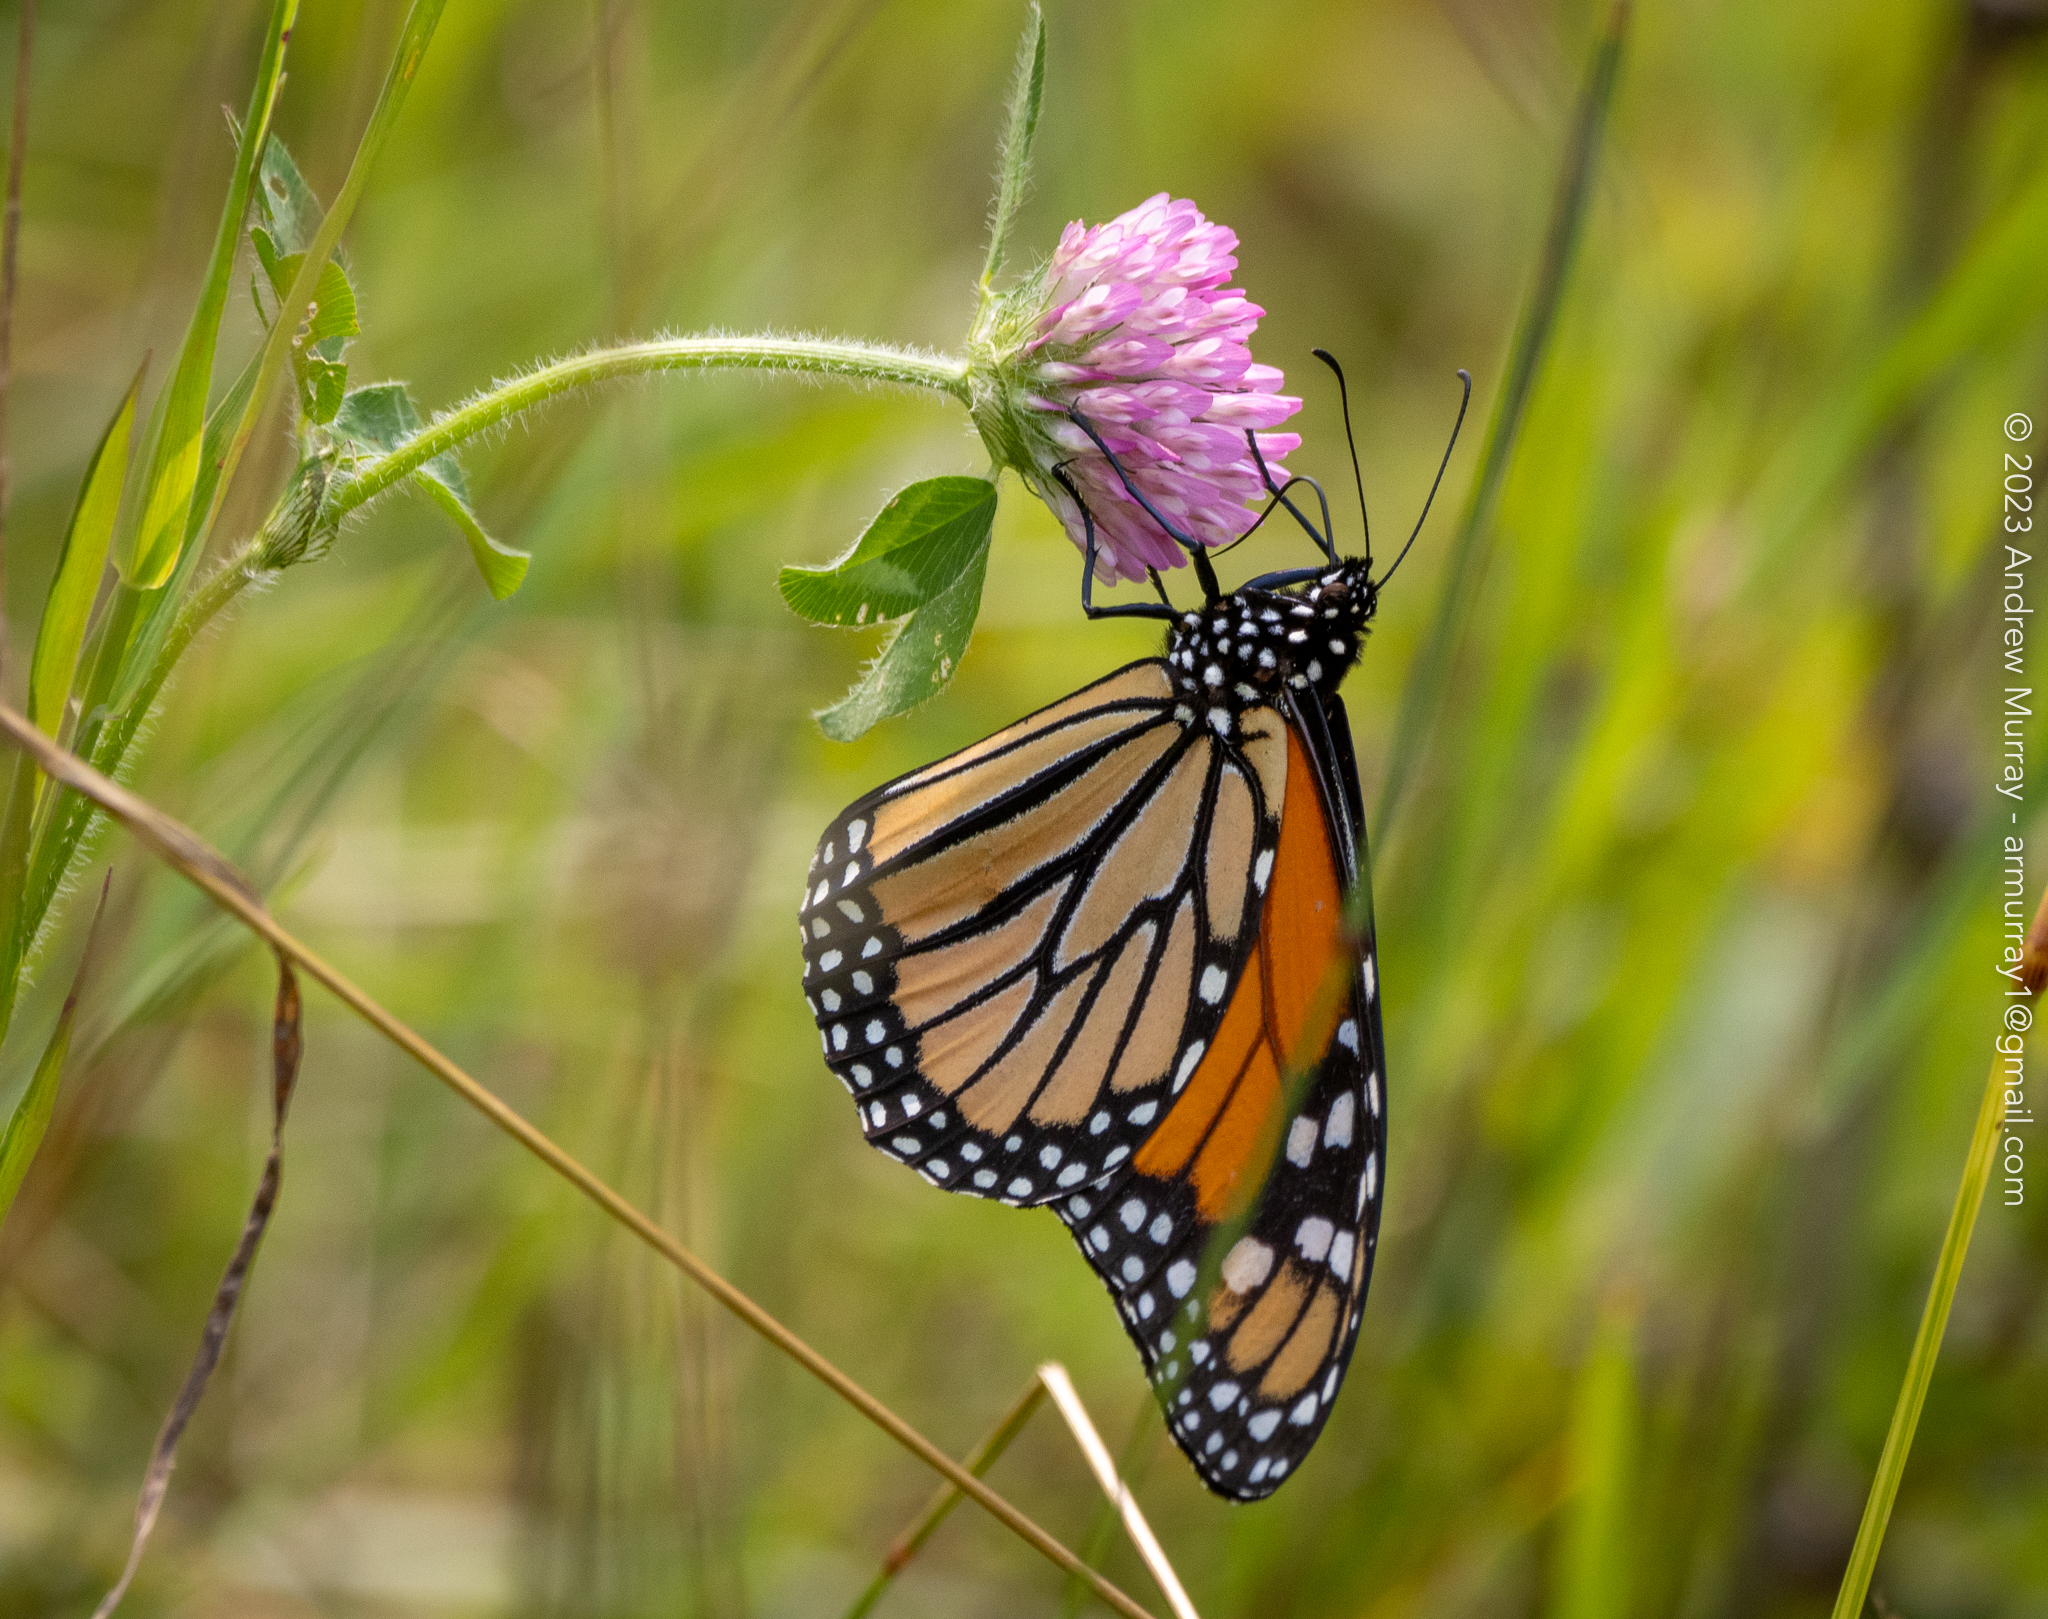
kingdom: Animalia
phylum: Arthropoda
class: Insecta
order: Lepidoptera
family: Nymphalidae
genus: Danaus
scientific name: Danaus plexippus
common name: Monarch
